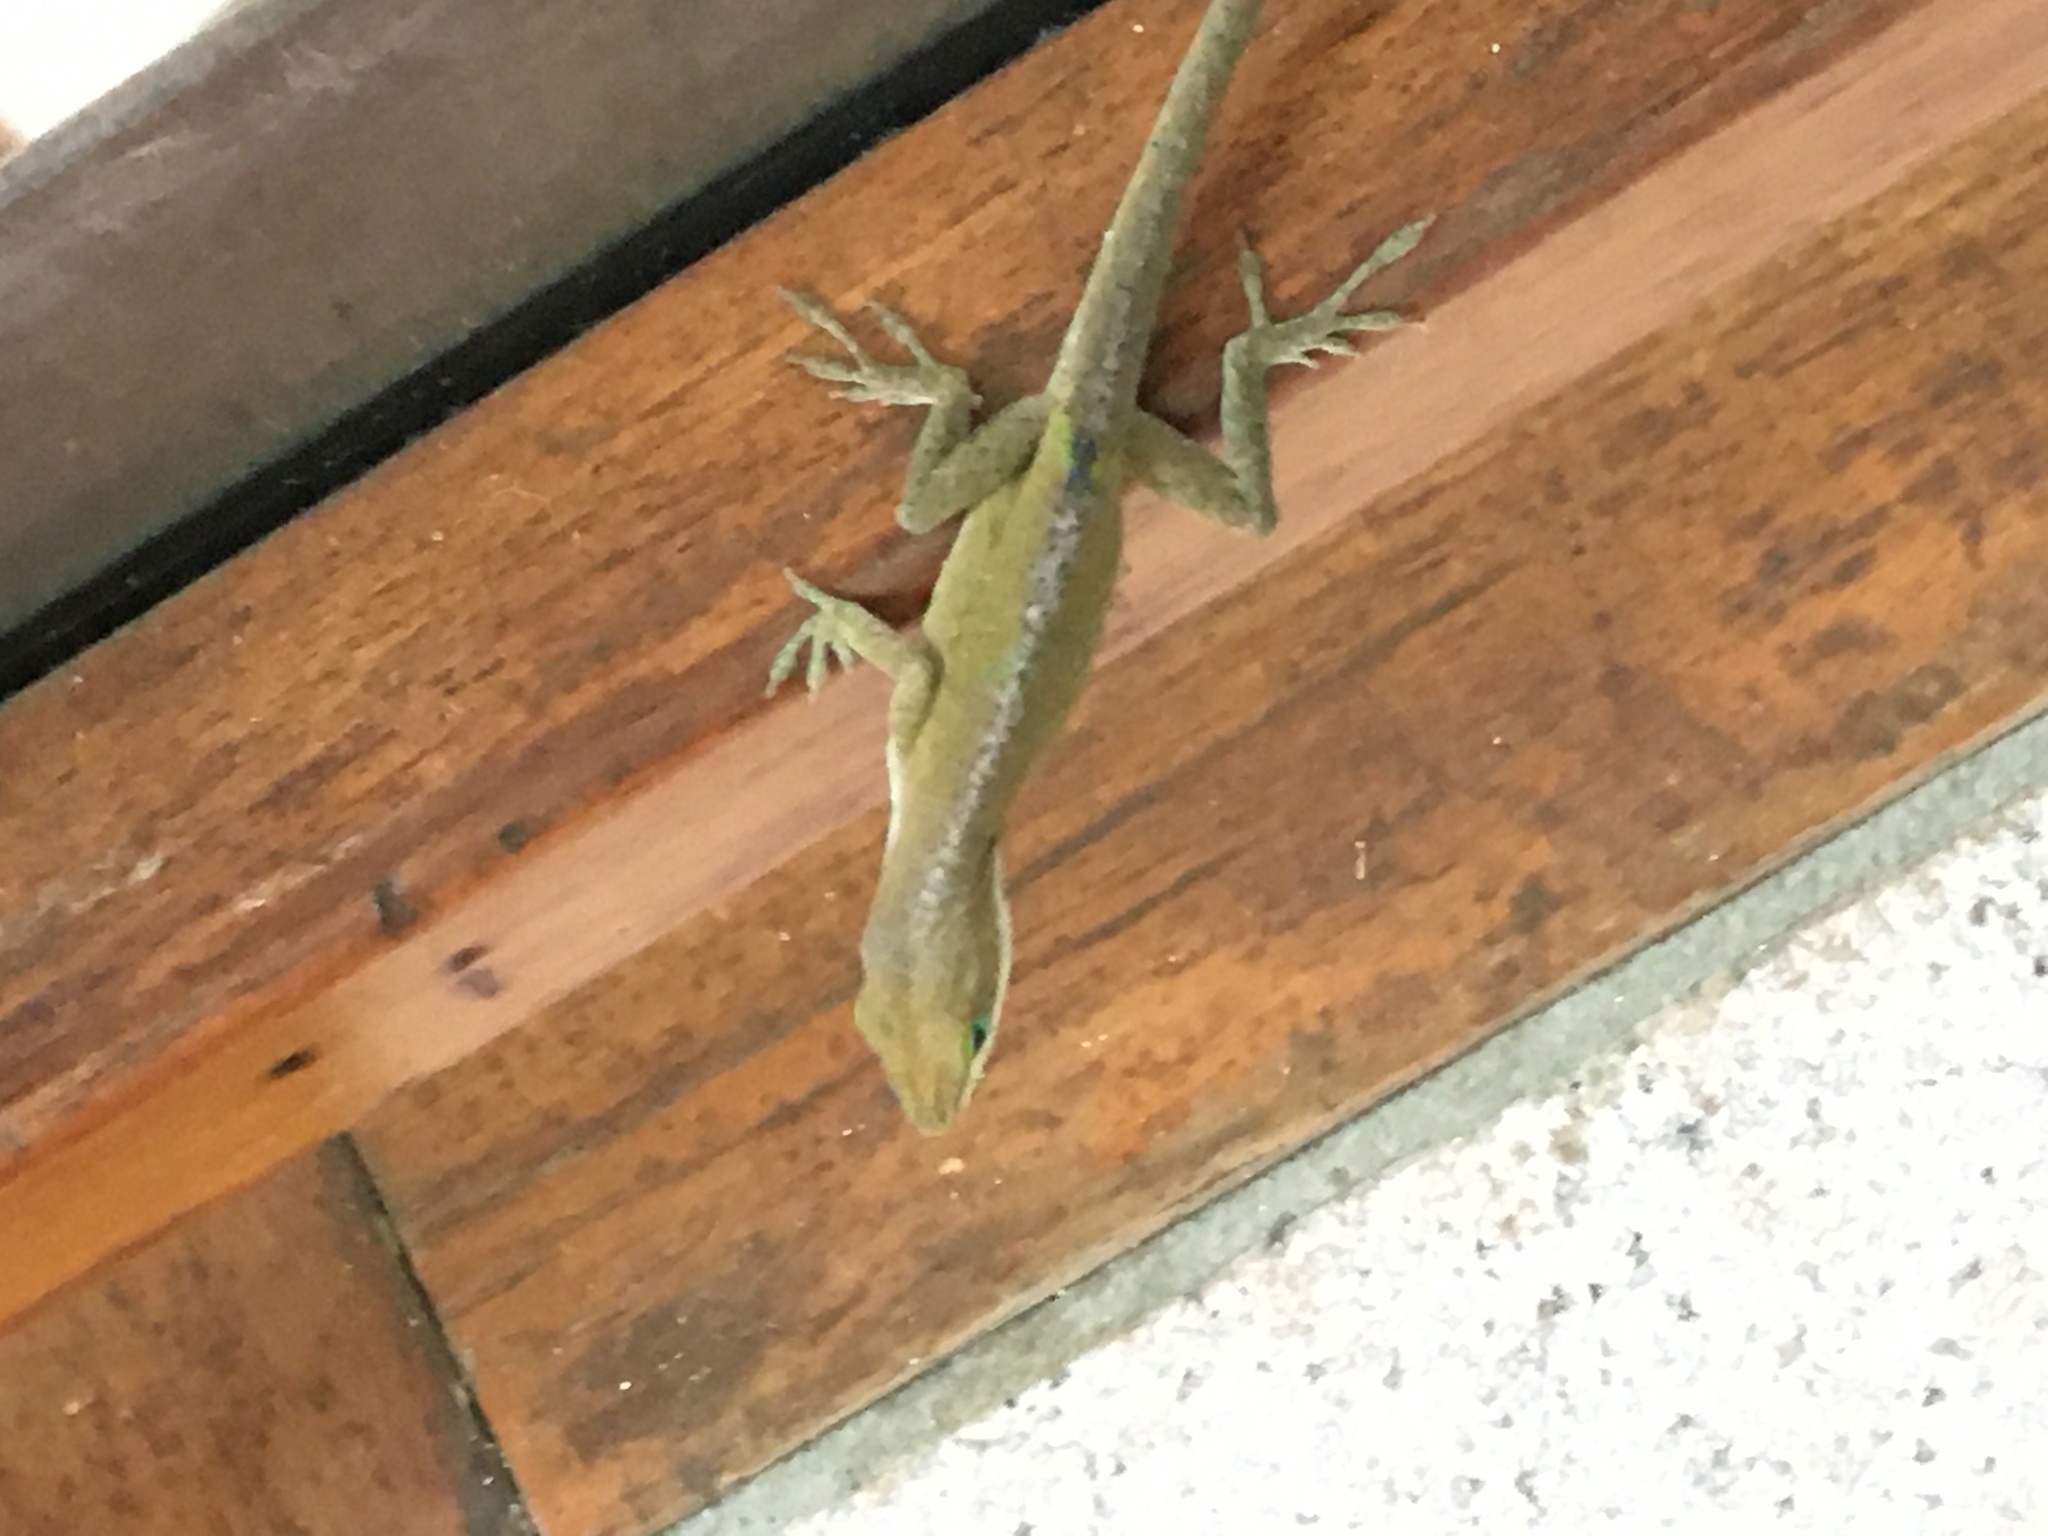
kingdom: Animalia
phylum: Chordata
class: Squamata
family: Dactyloidae
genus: Anolis
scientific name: Anolis carolinensis
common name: Green anole
